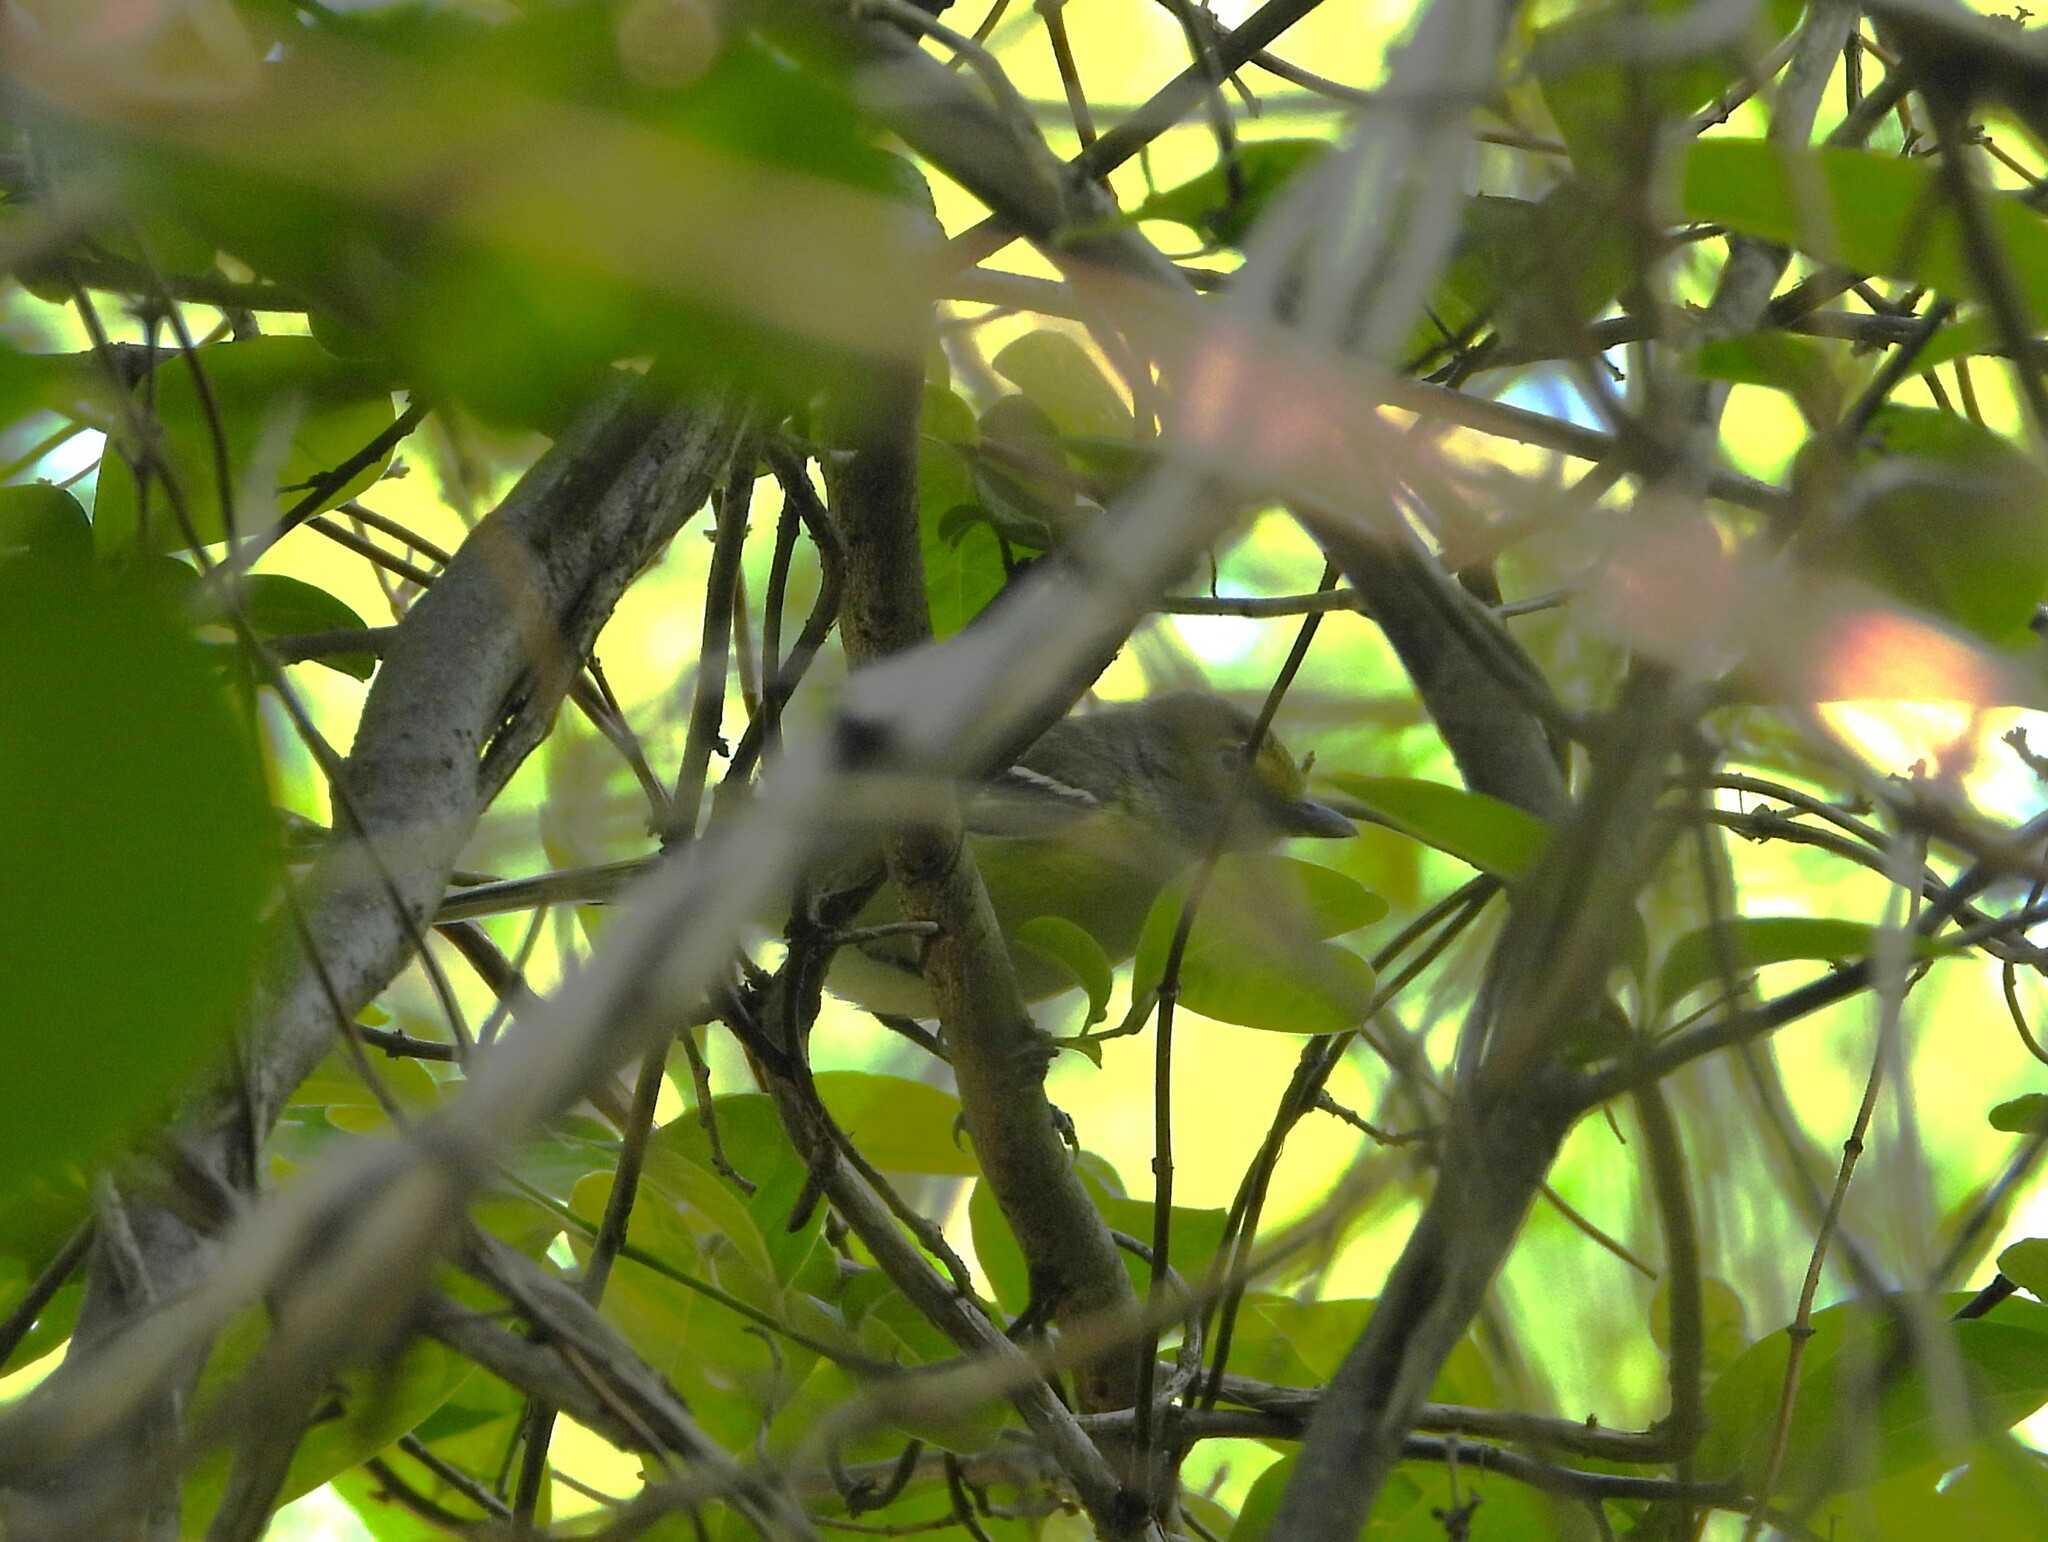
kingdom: Animalia
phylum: Chordata
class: Aves
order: Passeriformes
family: Vireonidae
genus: Vireo
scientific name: Vireo griseus
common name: White-eyed vireo
